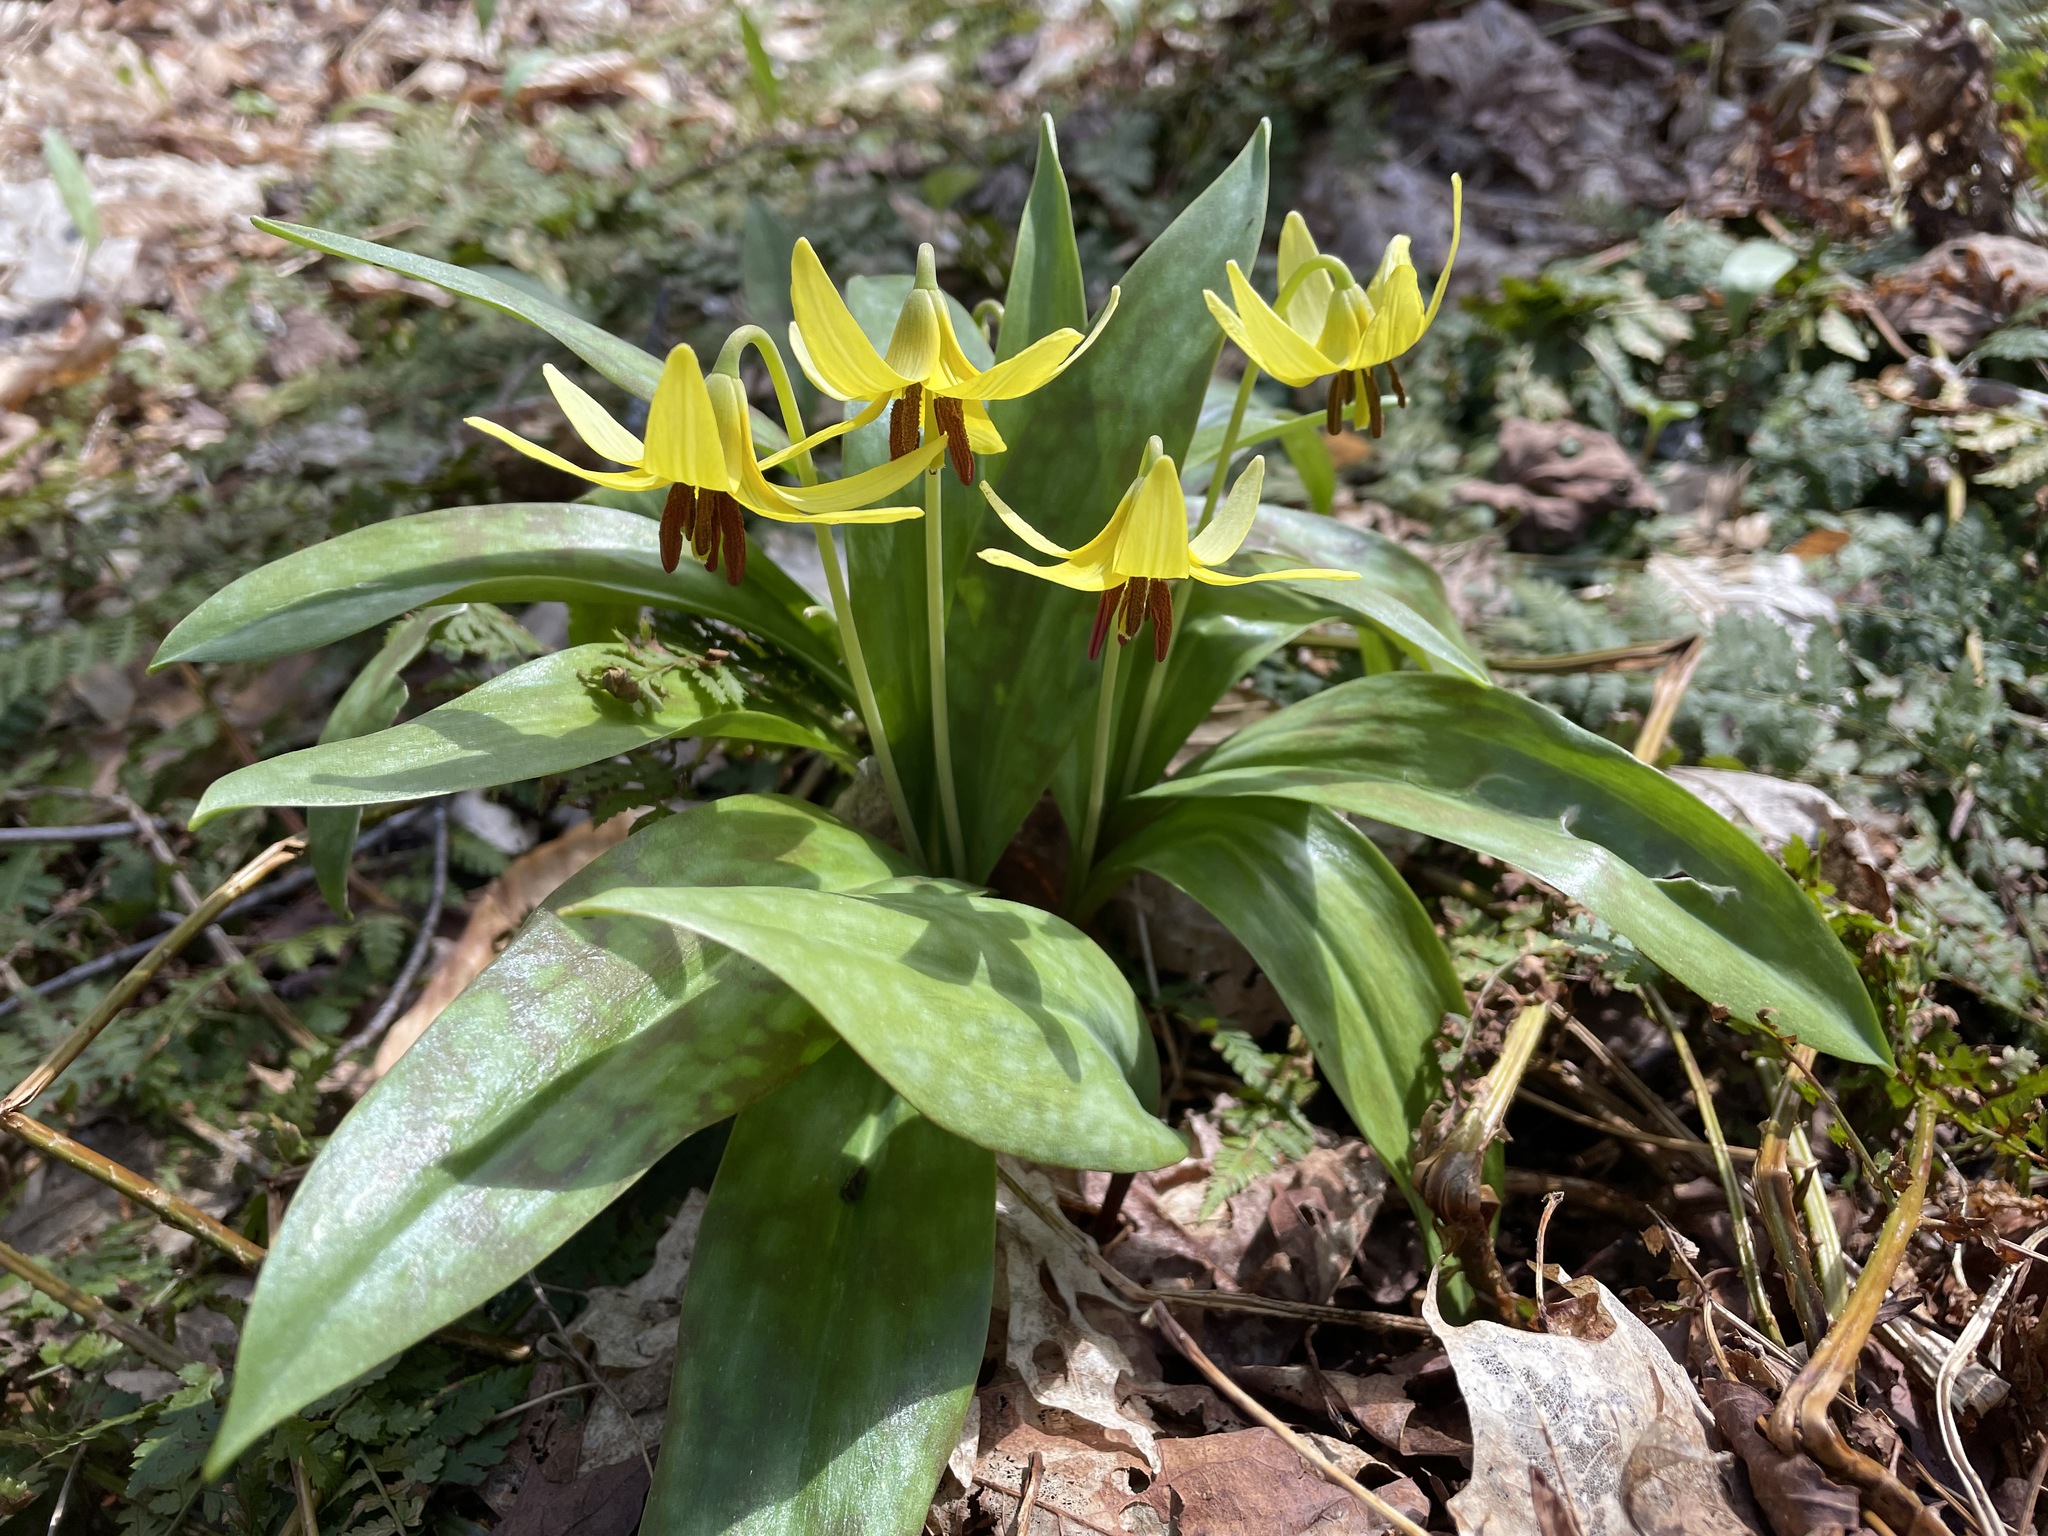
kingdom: Plantae
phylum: Tracheophyta
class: Liliopsida
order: Liliales
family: Liliaceae
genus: Erythronium
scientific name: Erythronium americanum
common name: Yellow adder's-tongue
